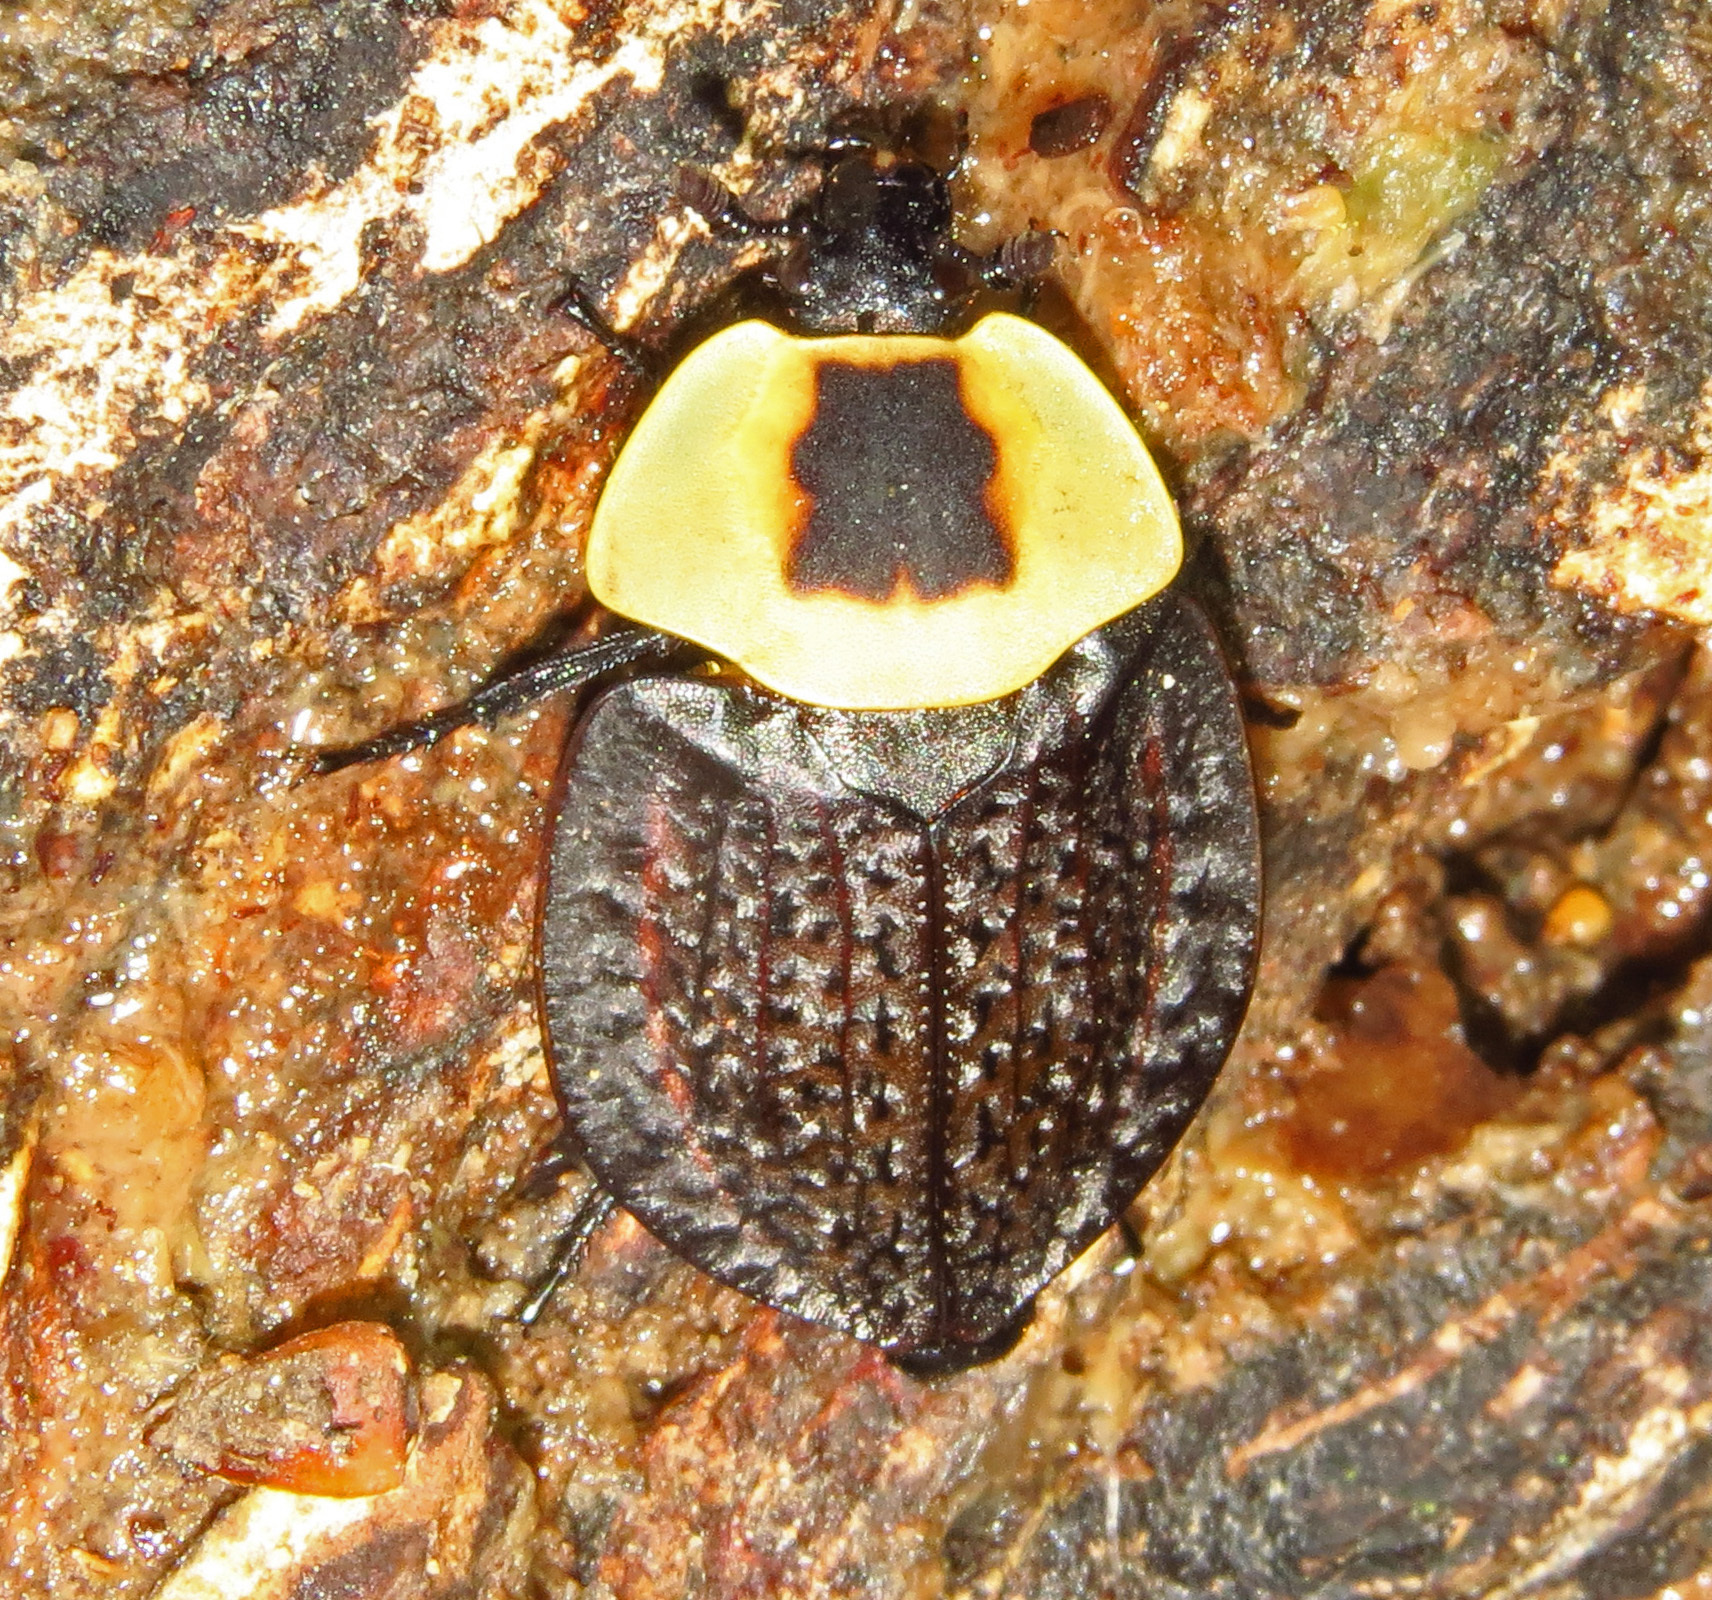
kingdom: Animalia
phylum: Arthropoda
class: Insecta
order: Coleoptera
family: Staphylinidae
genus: Necrophila
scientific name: Necrophila americana
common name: American carrion beetle
